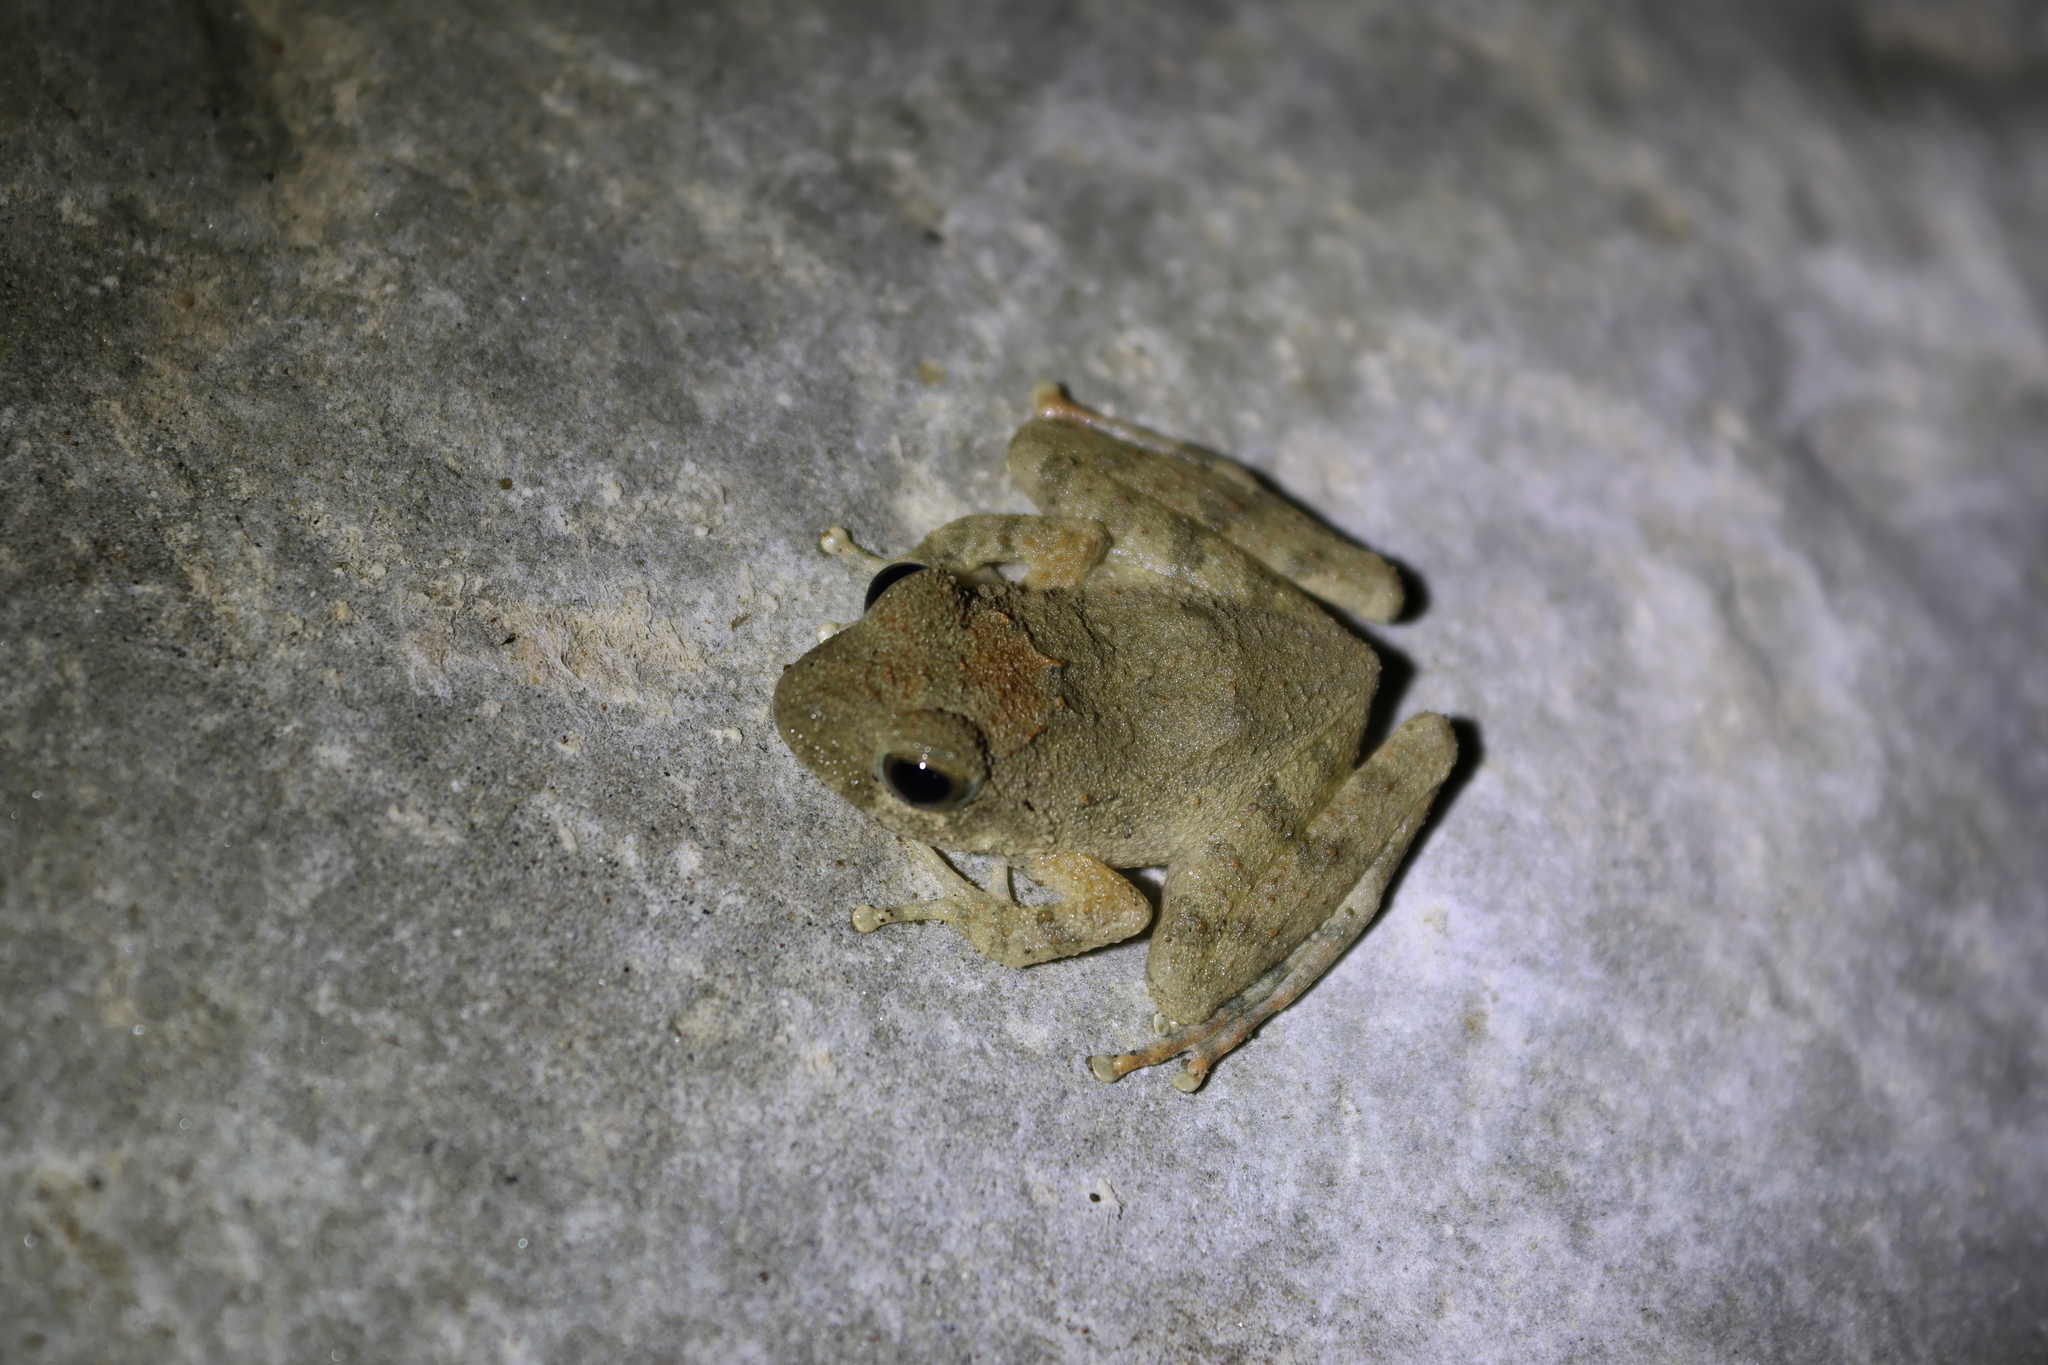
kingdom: Animalia
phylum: Chordata
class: Amphibia
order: Anura
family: Rhacophoridae
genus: Buergeria
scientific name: Buergeria otai
